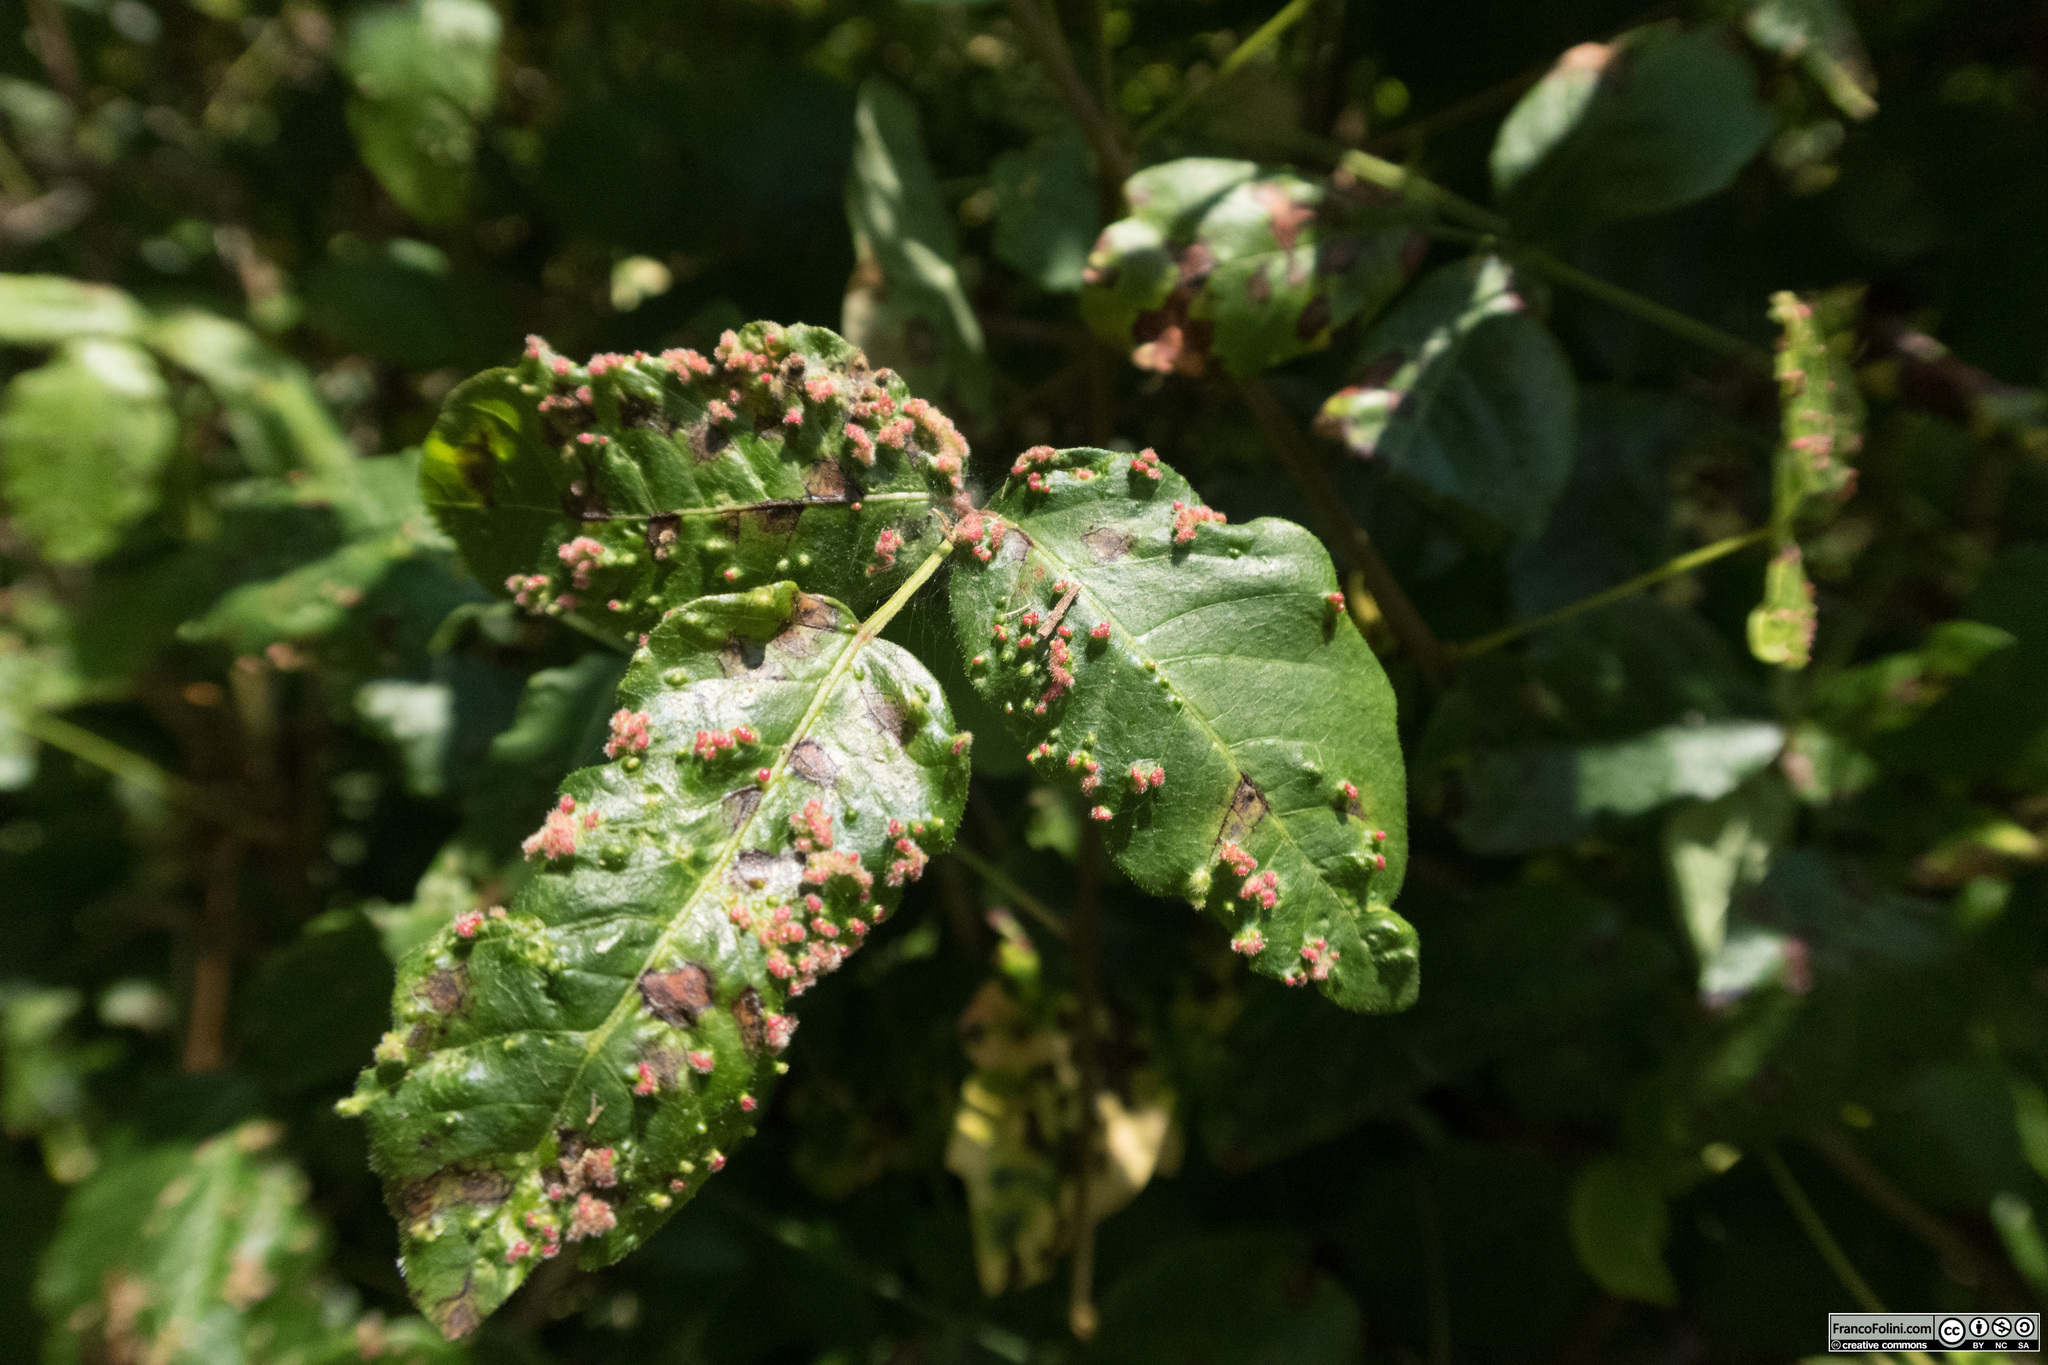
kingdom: Animalia
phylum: Arthropoda
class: Arachnida
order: Trombidiformes
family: Eriophyidae
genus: Aculops
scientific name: Aculops
